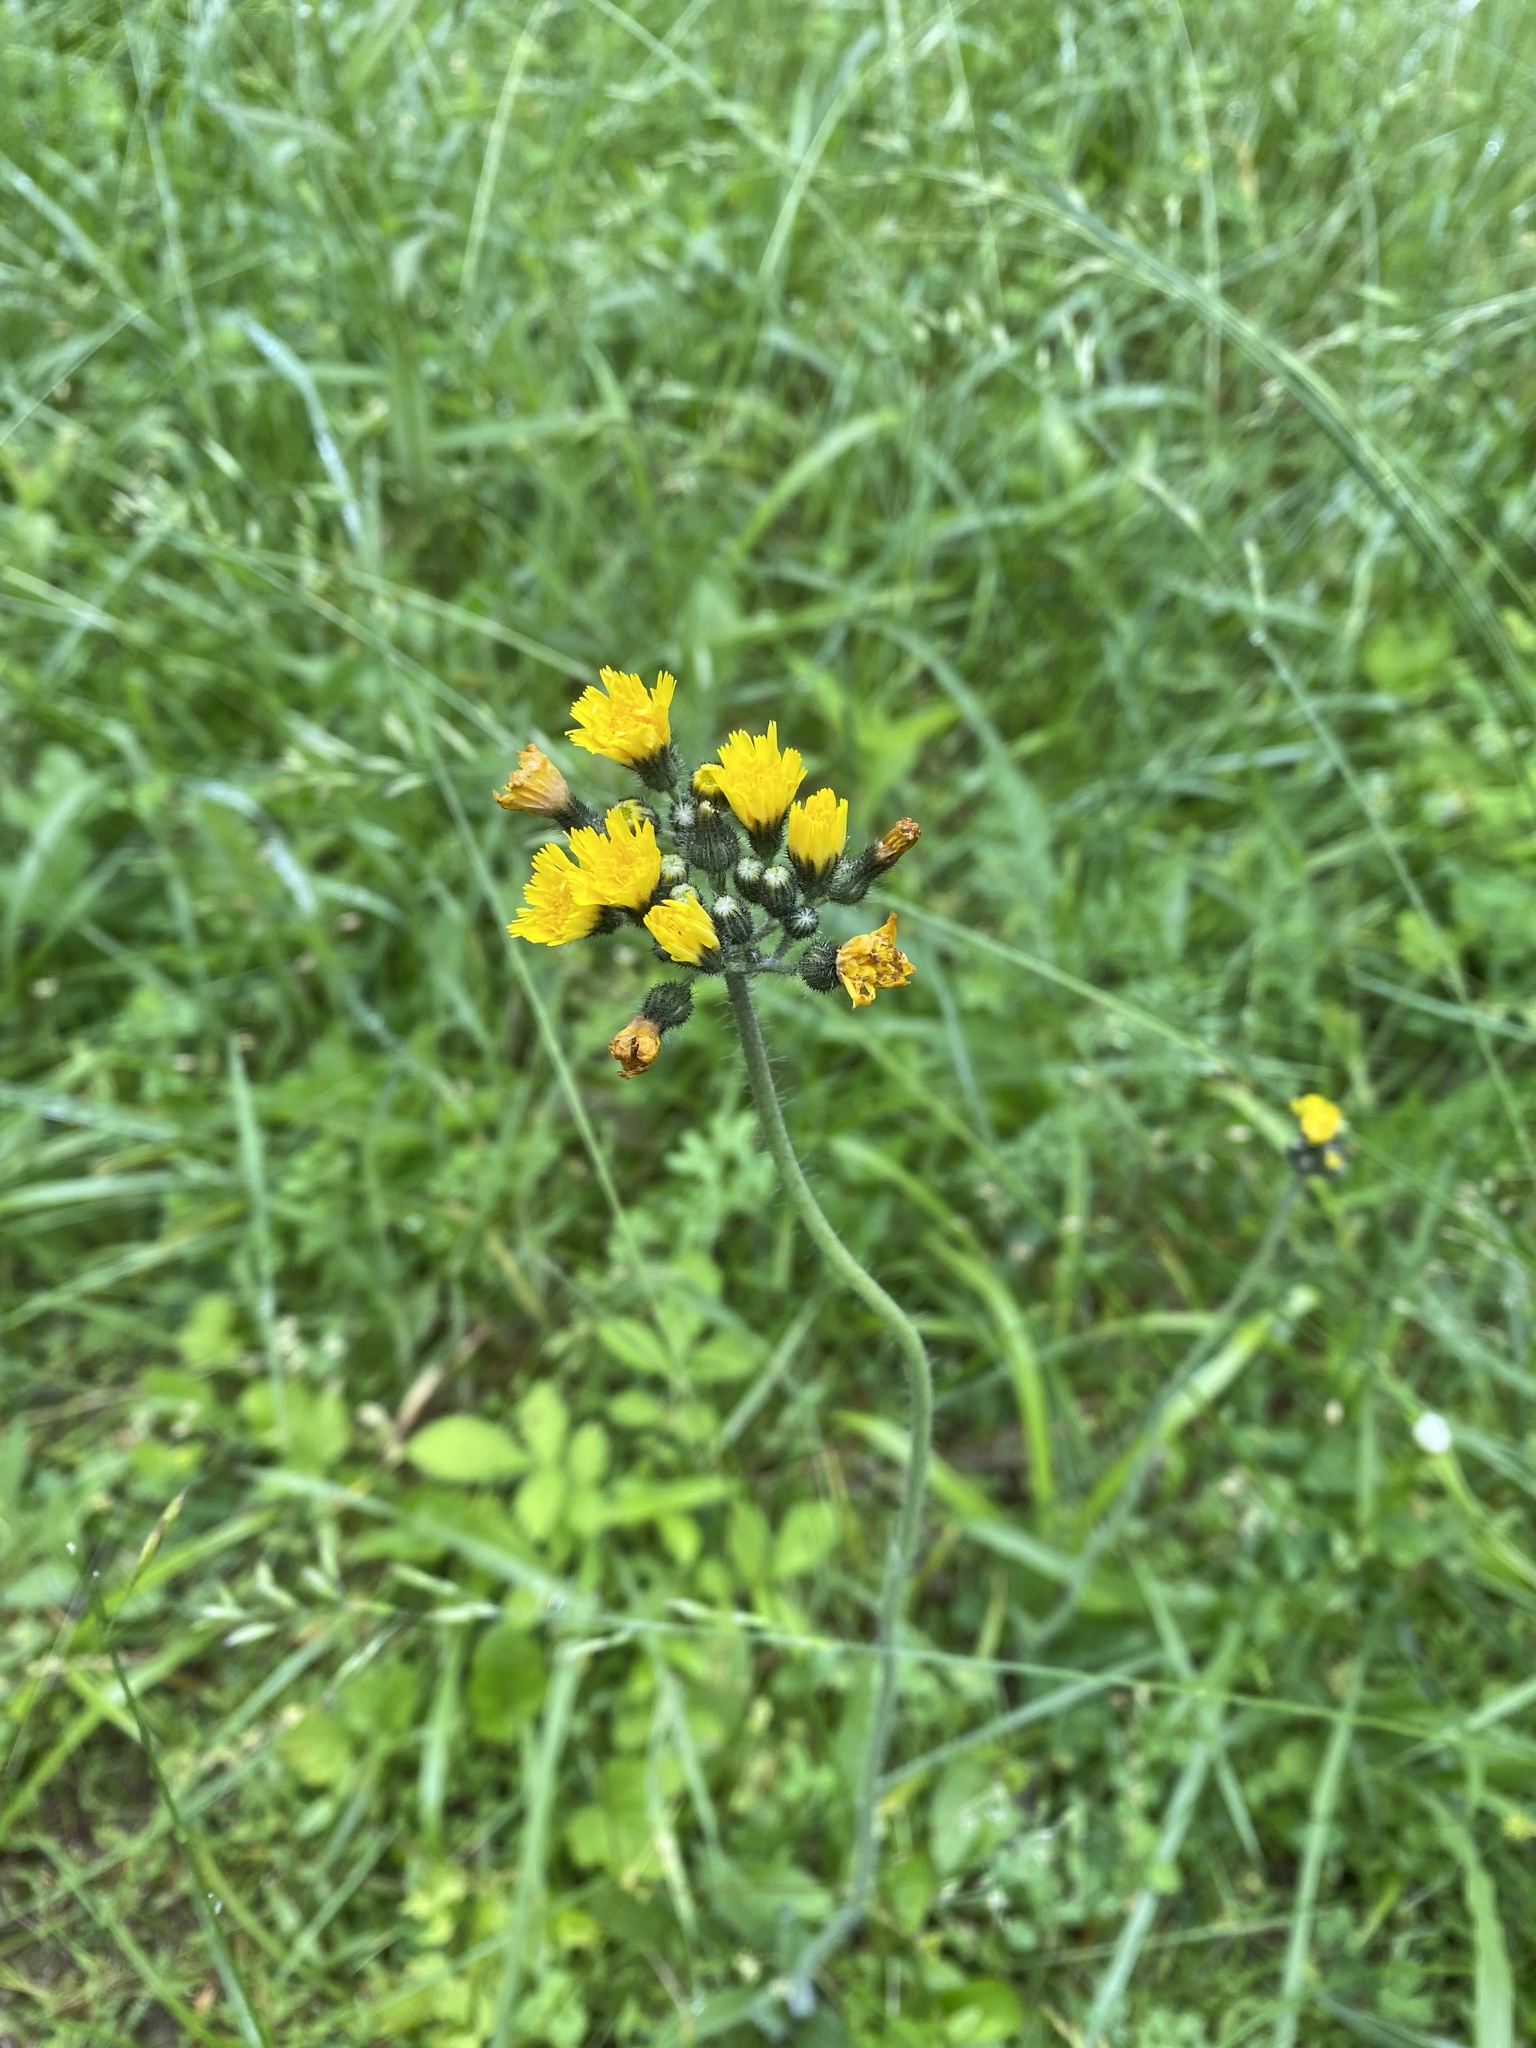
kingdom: Plantae
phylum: Tracheophyta
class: Magnoliopsida
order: Asterales
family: Asteraceae
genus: Pilosella
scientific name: Pilosella caespitosa
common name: Yellow fox-and-cubs
